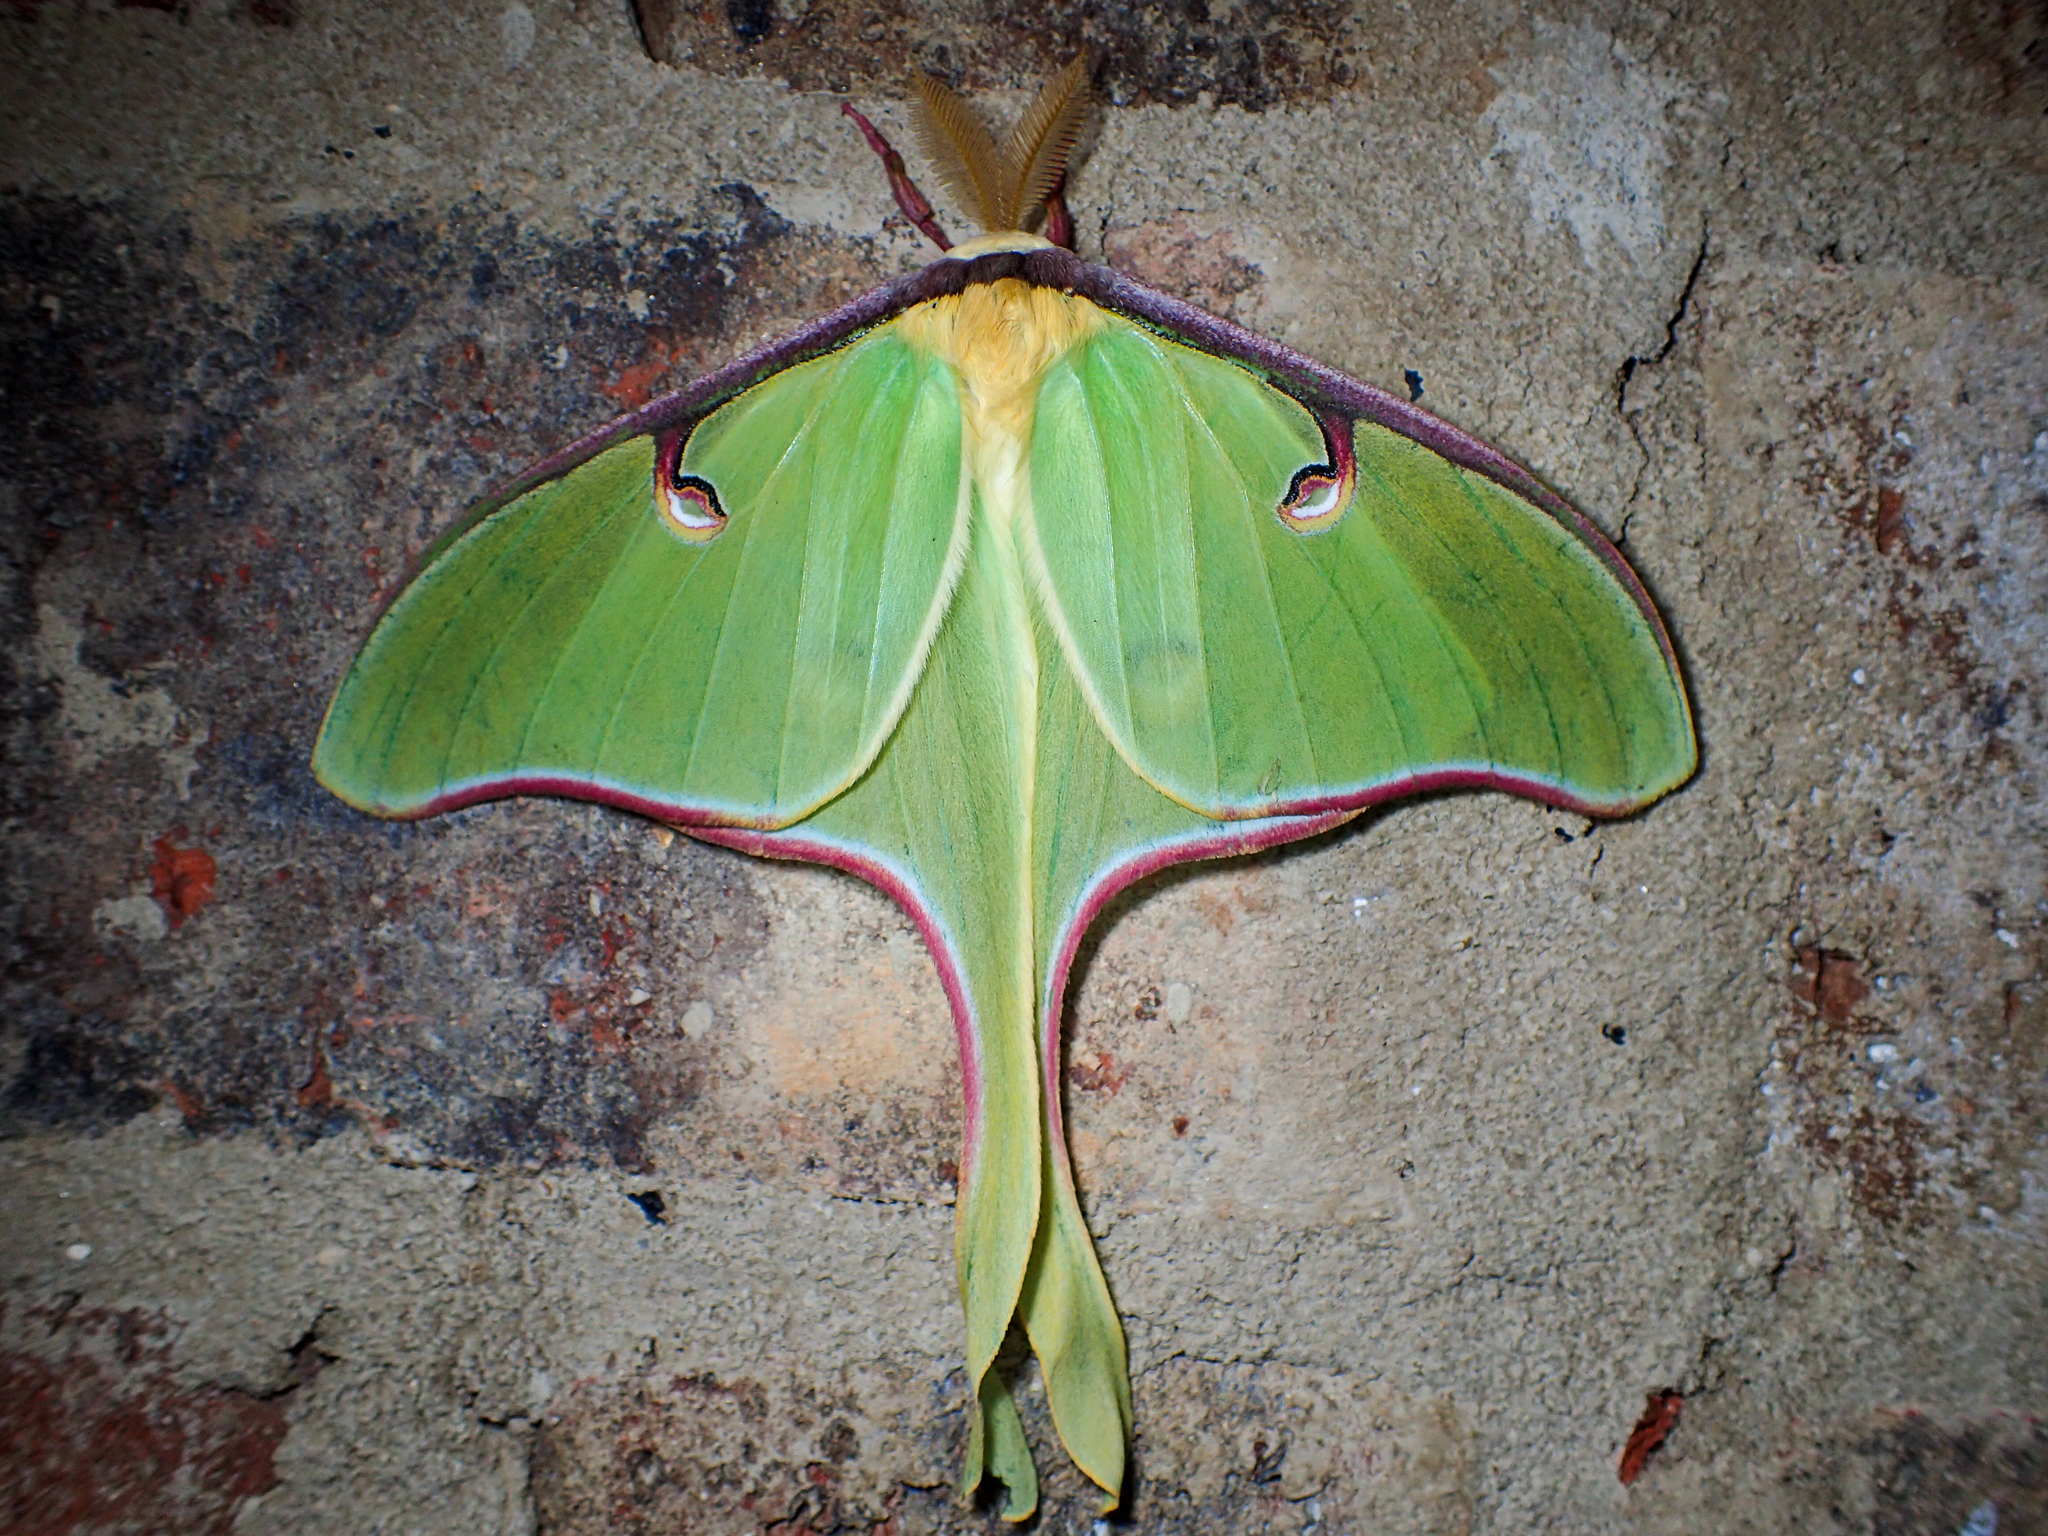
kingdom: Animalia
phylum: Arthropoda
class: Insecta
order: Lepidoptera
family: Saturniidae
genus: Actias
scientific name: Actias luna
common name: Luna moth
